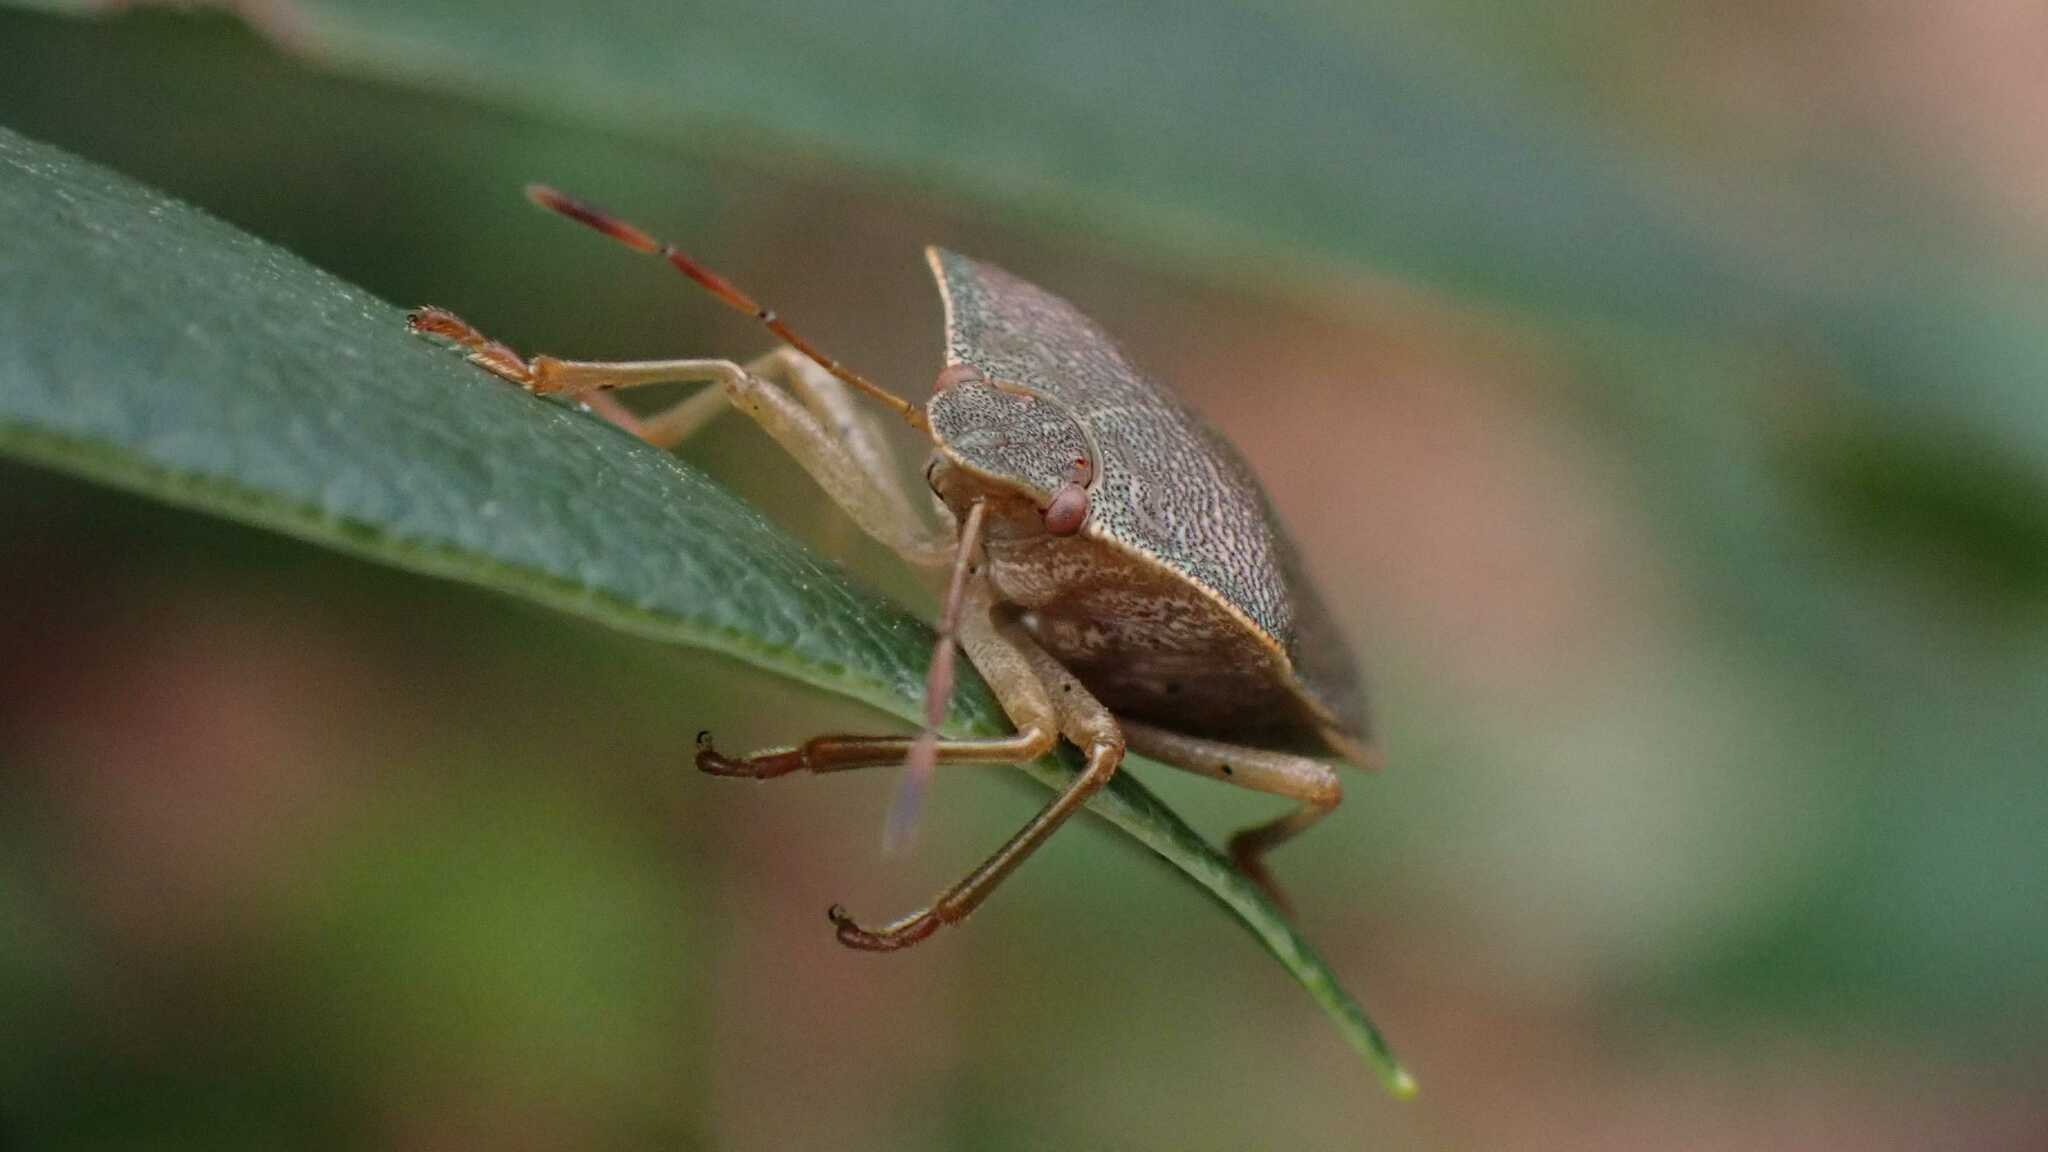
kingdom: Animalia
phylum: Arthropoda
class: Insecta
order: Hemiptera
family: Pentatomidae
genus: Palomena
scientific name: Palomena prasina
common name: Green shieldbug
